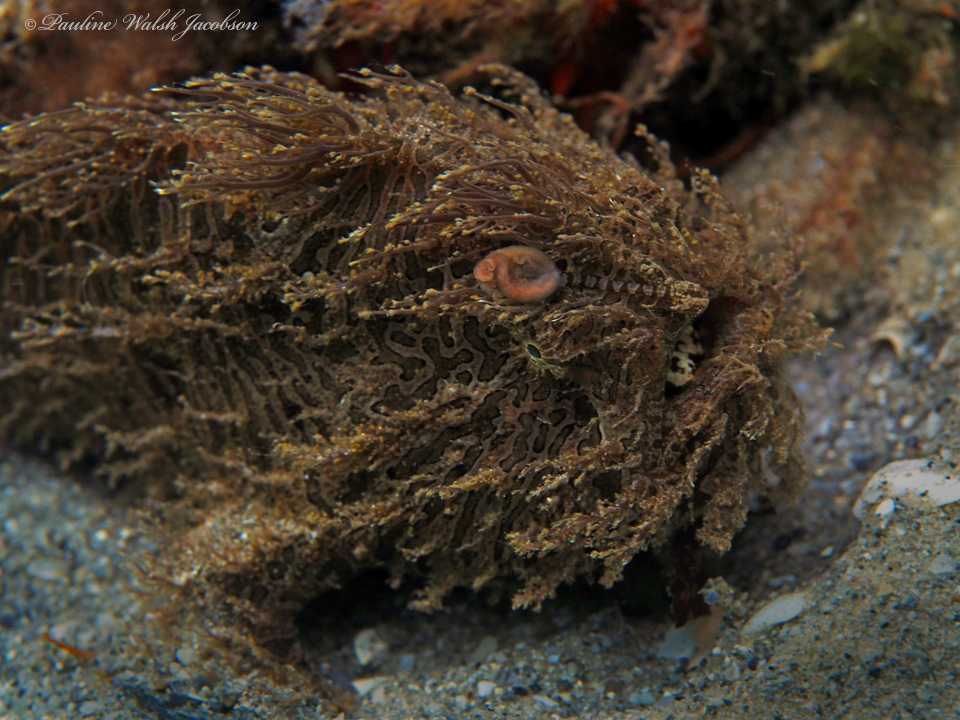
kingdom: Animalia
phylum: Chordata
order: Lophiiformes
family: Antennariidae
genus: Antennarius
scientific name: Antennarius striatus
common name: Striated frogfish
